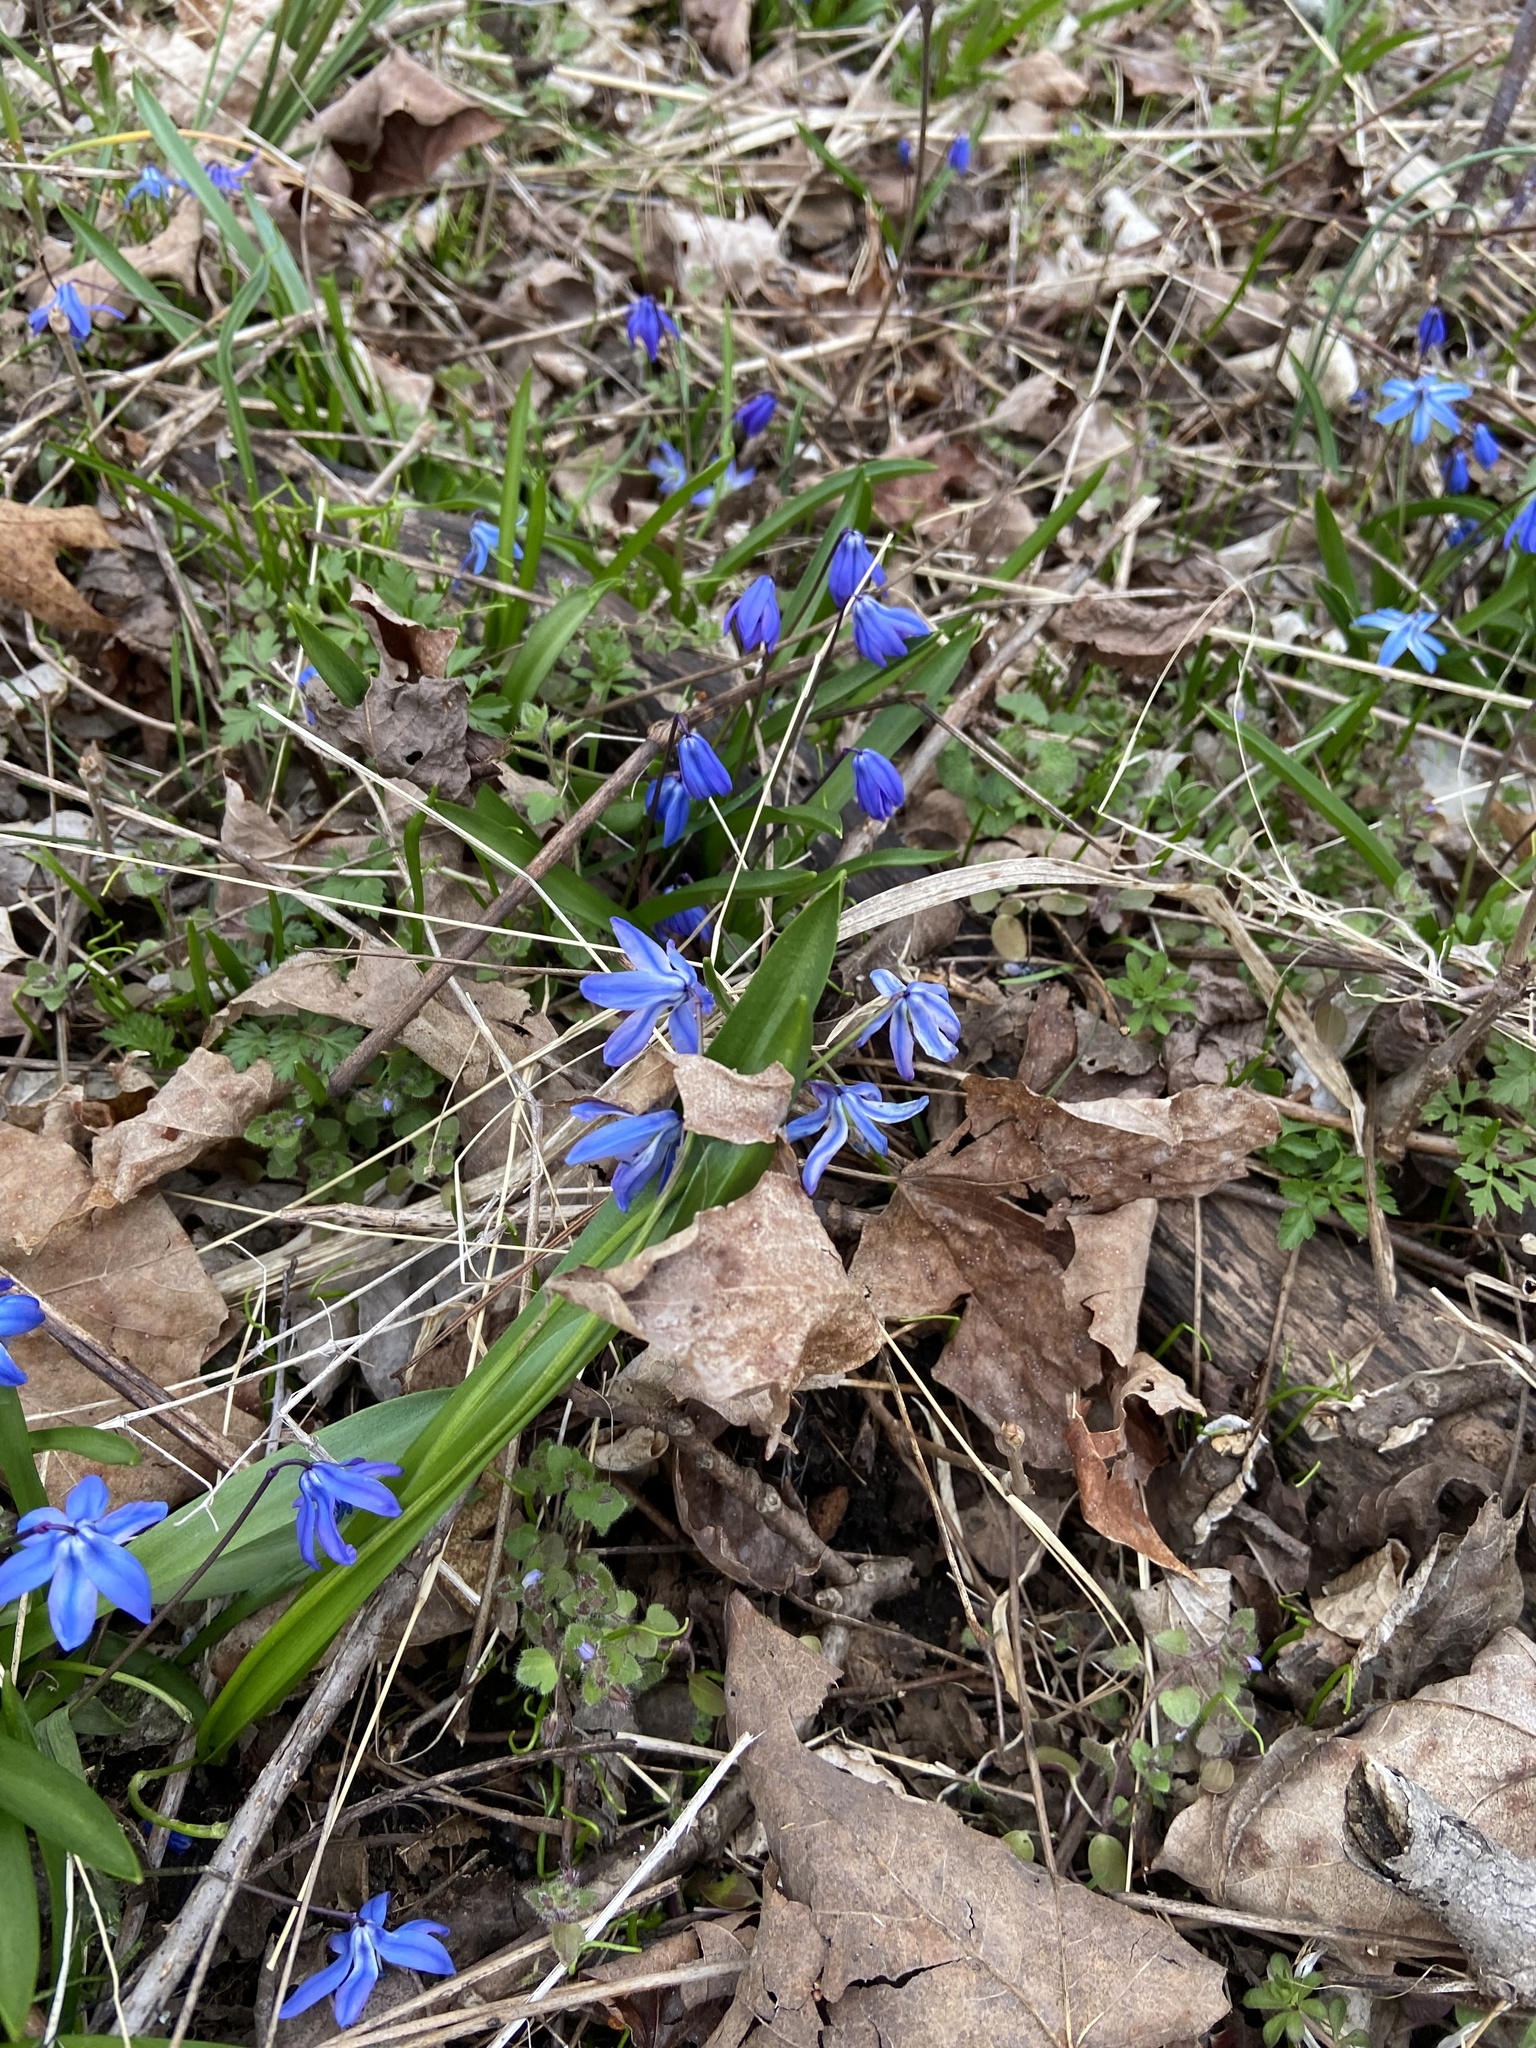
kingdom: Plantae
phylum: Tracheophyta
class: Liliopsida
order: Asparagales
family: Asparagaceae
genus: Scilla
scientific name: Scilla siberica
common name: Siberian squill
